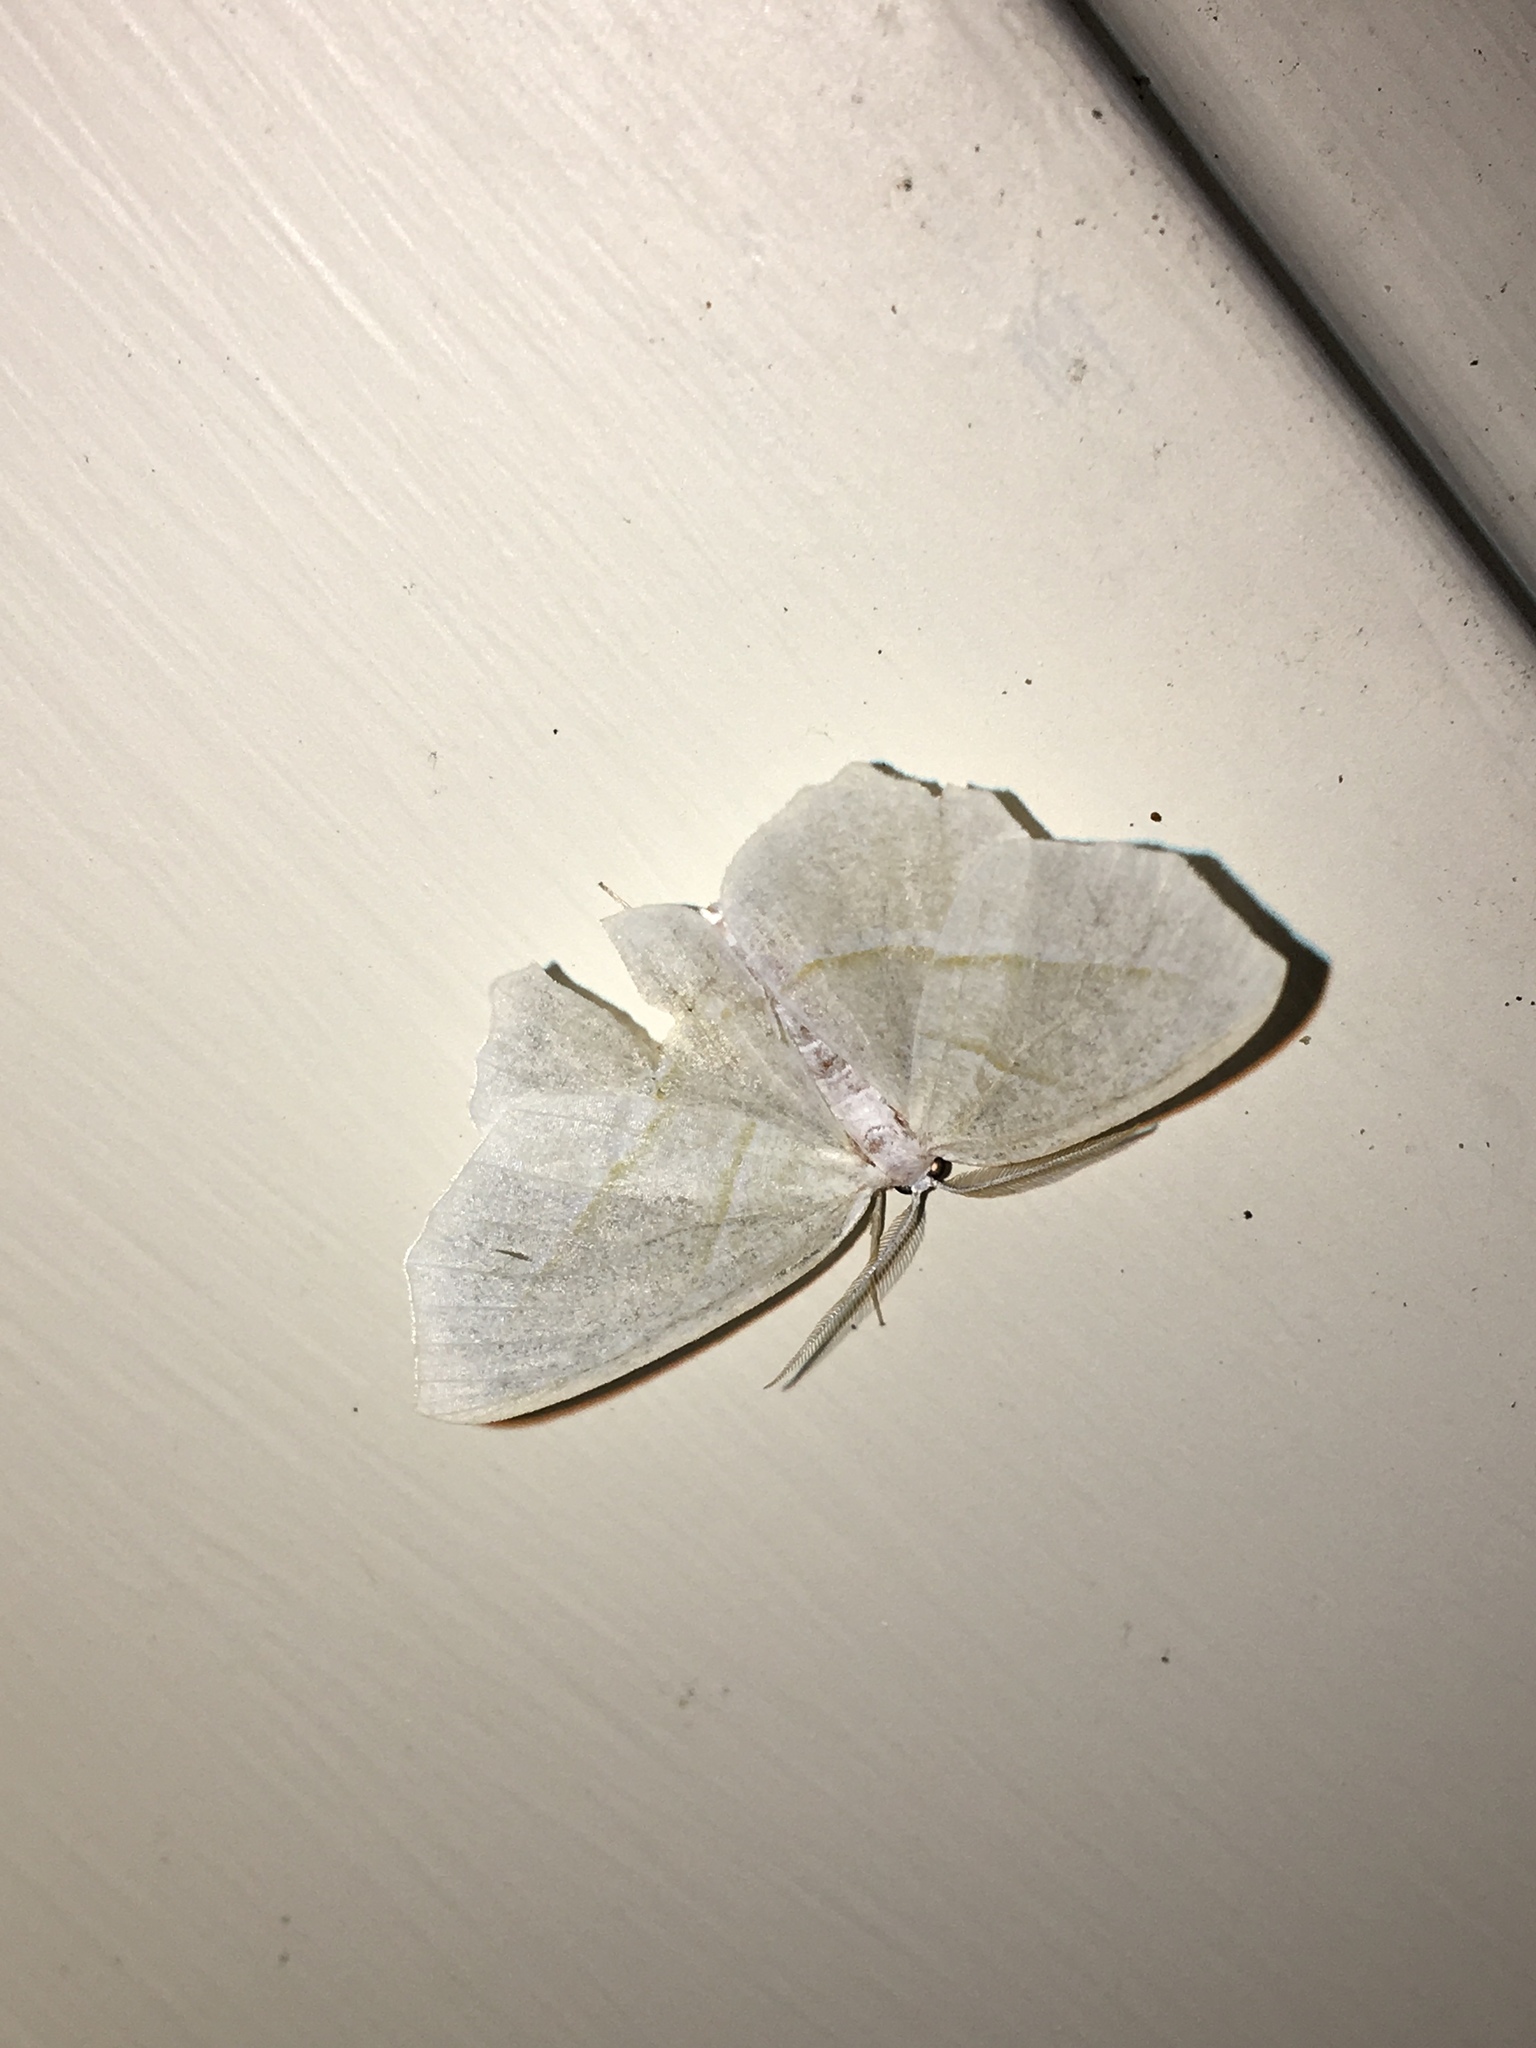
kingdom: Animalia
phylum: Arthropoda
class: Insecta
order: Lepidoptera
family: Geometridae
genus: Campaea
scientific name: Campaea perlata
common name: Fringed looper
